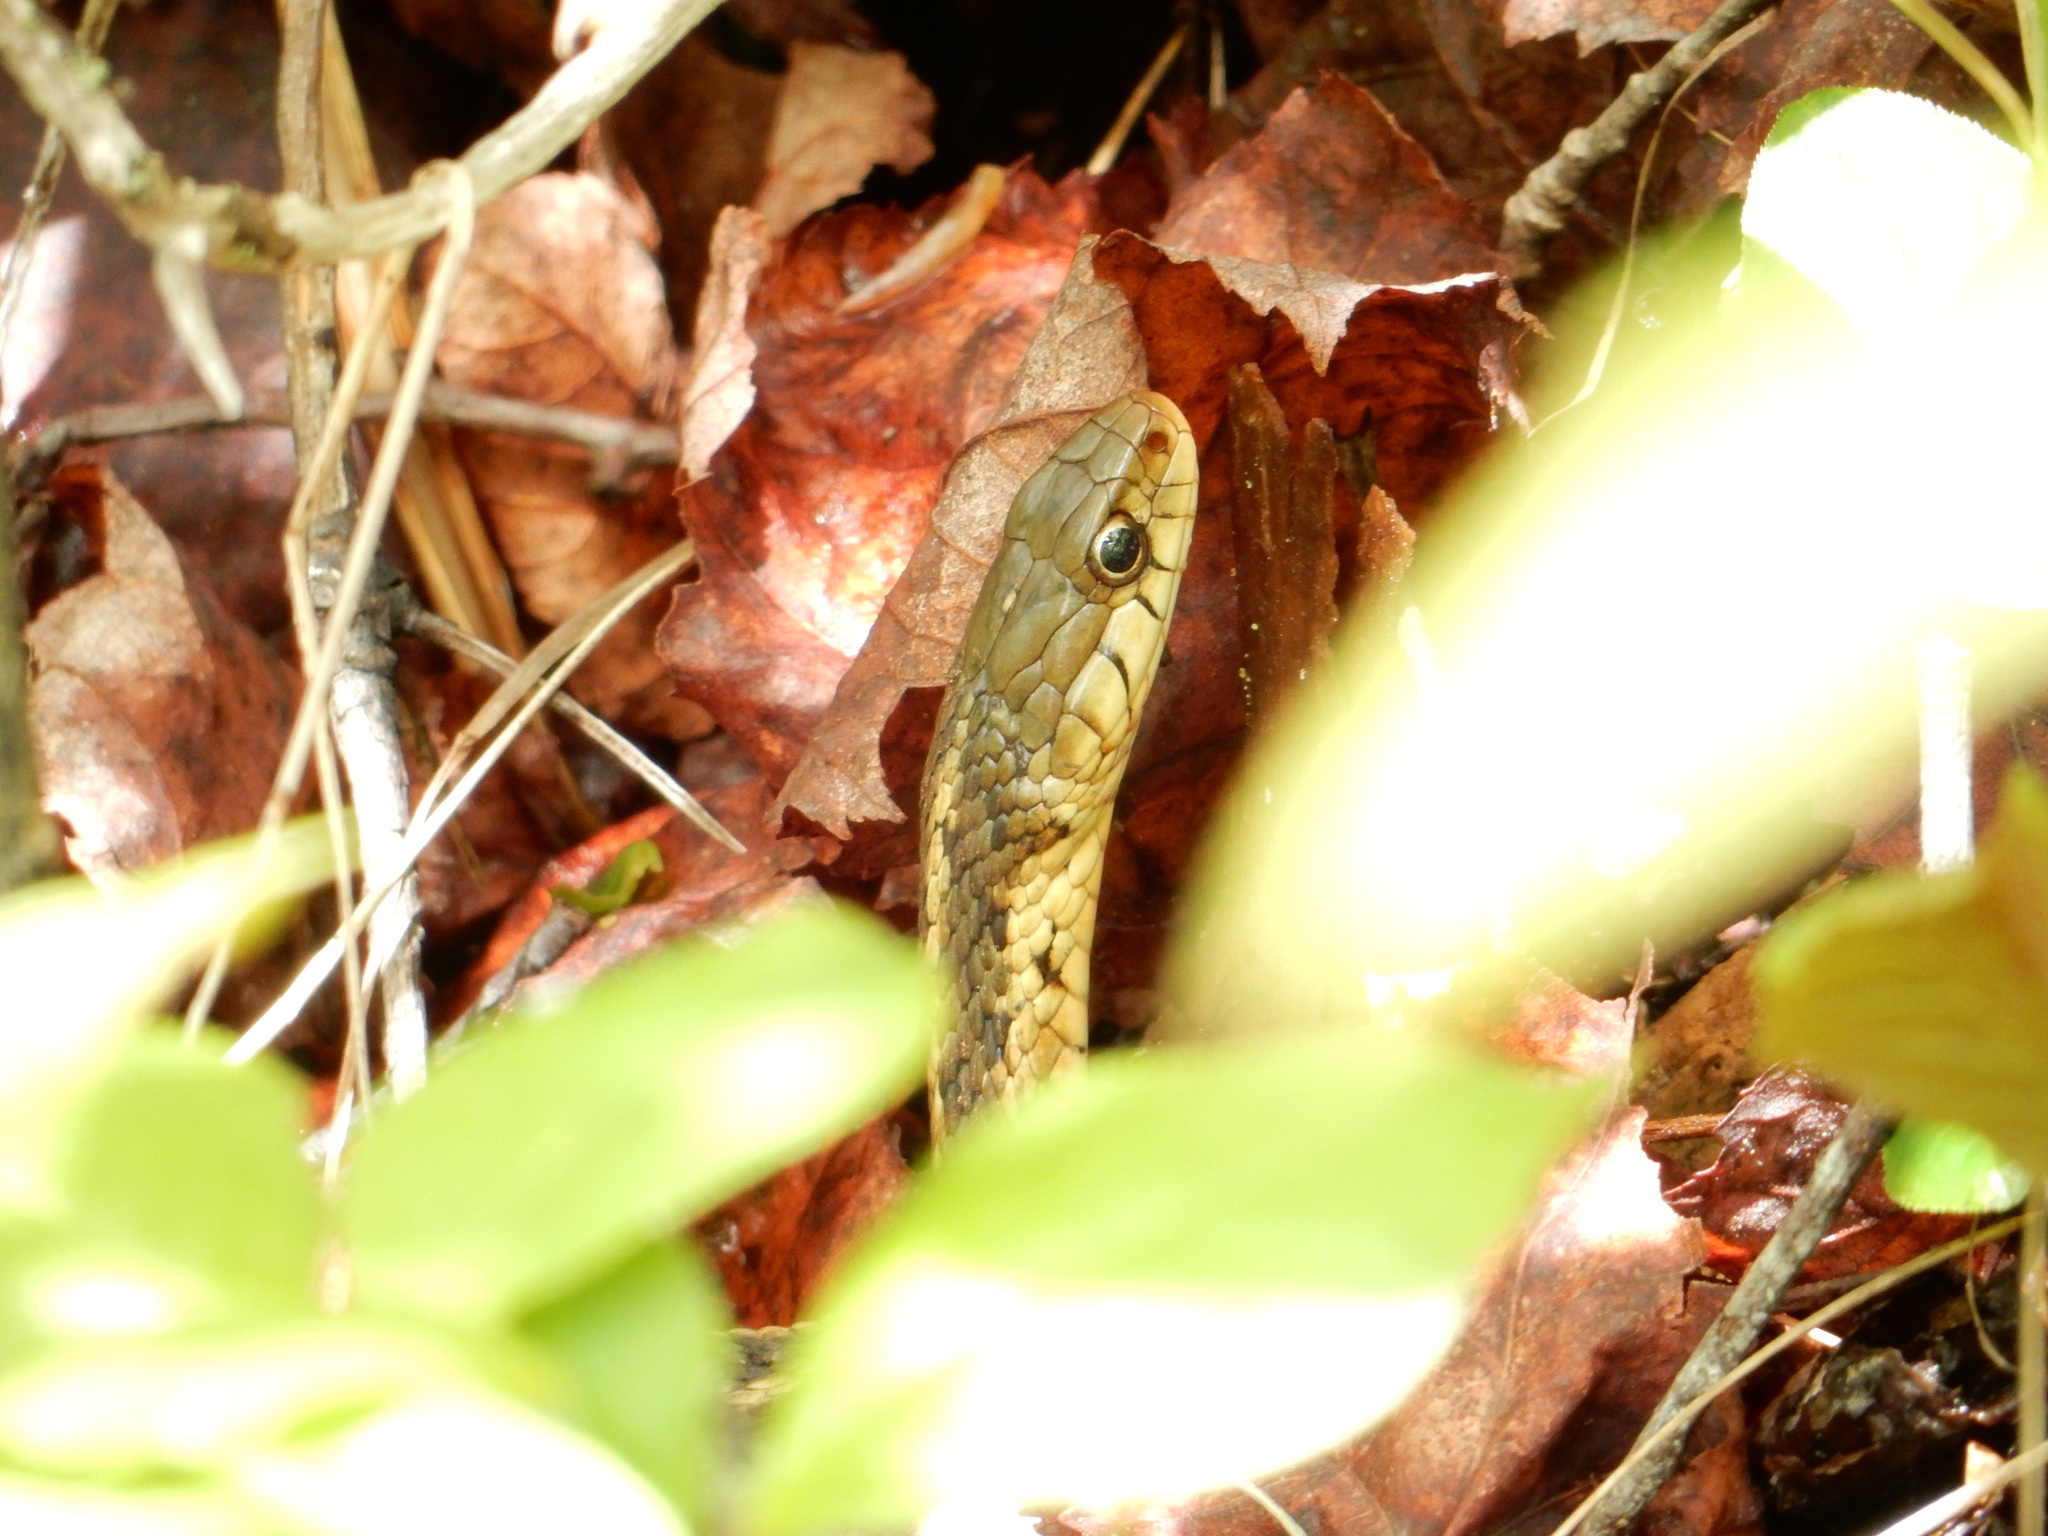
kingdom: Animalia
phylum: Chordata
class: Squamata
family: Colubridae
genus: Thamnophis
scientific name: Thamnophis sirtalis
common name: Common garter snake
